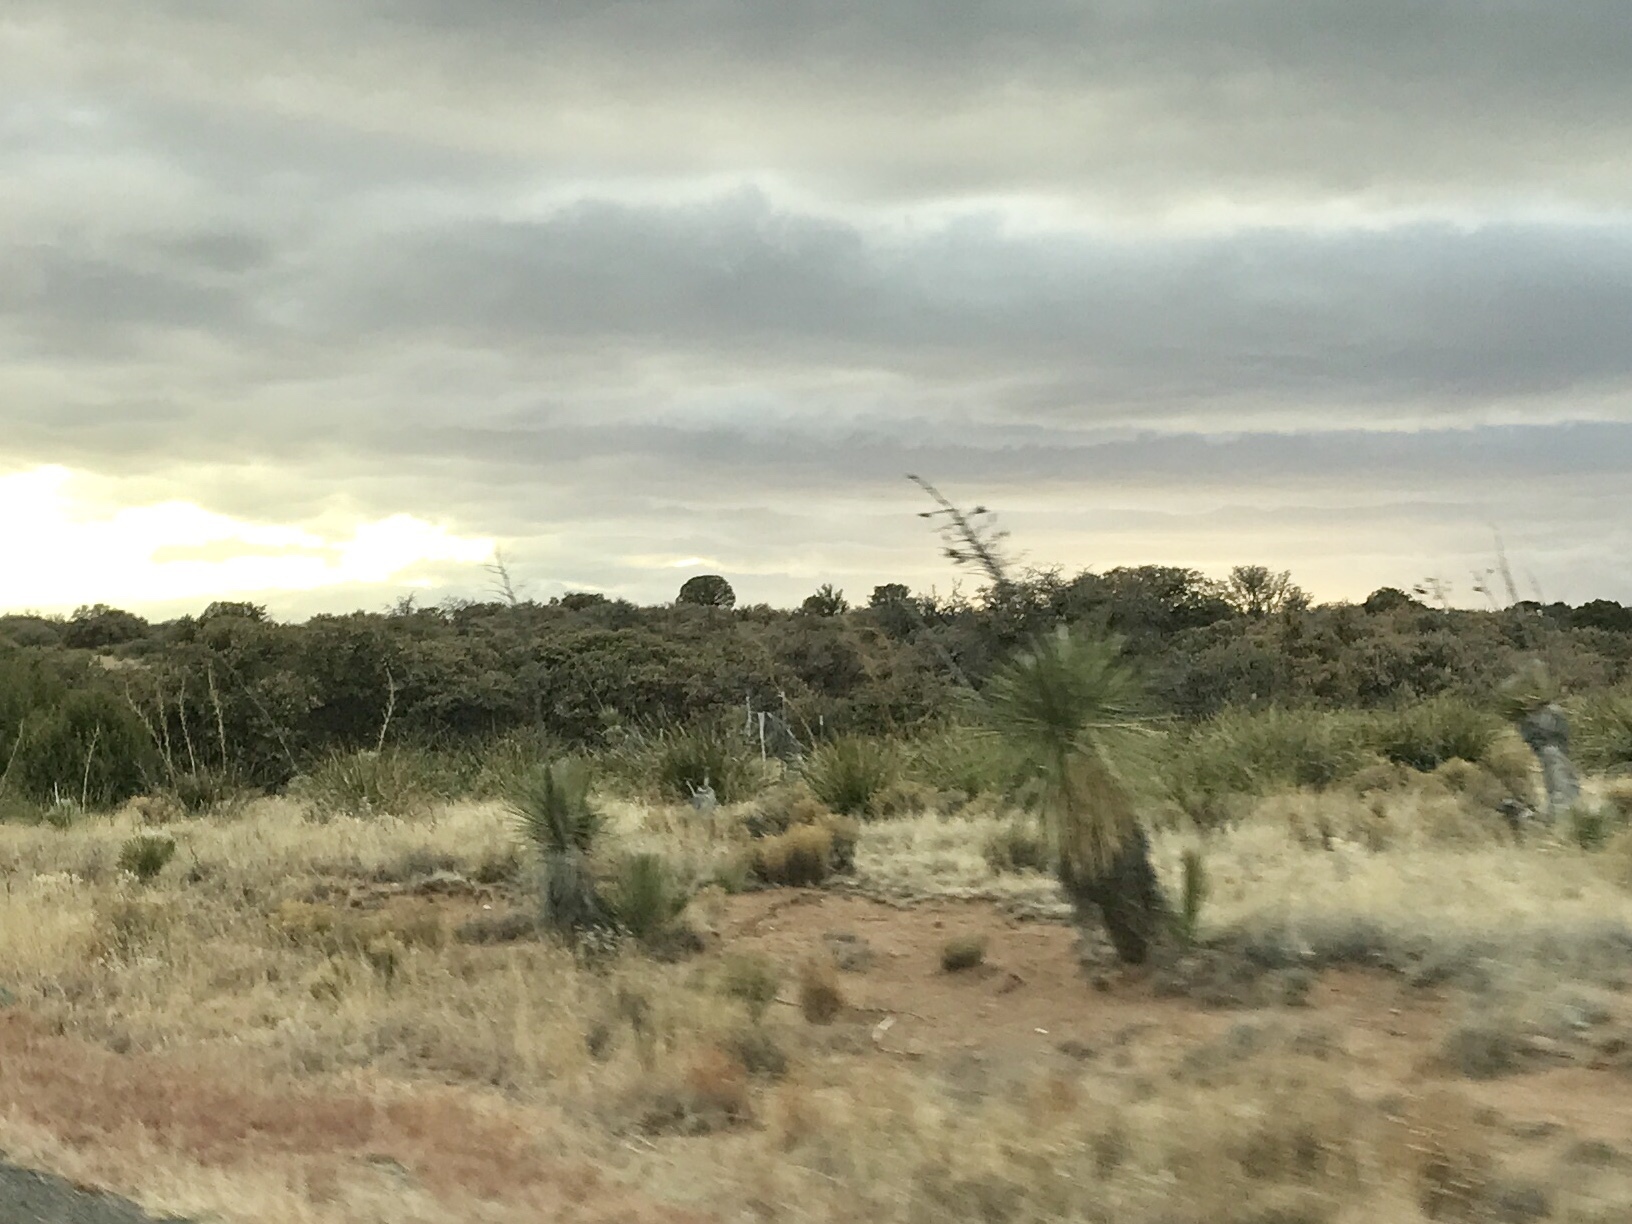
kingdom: Plantae
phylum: Tracheophyta
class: Liliopsida
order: Asparagales
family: Asparagaceae
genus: Yucca
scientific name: Yucca elata
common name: Palmella
